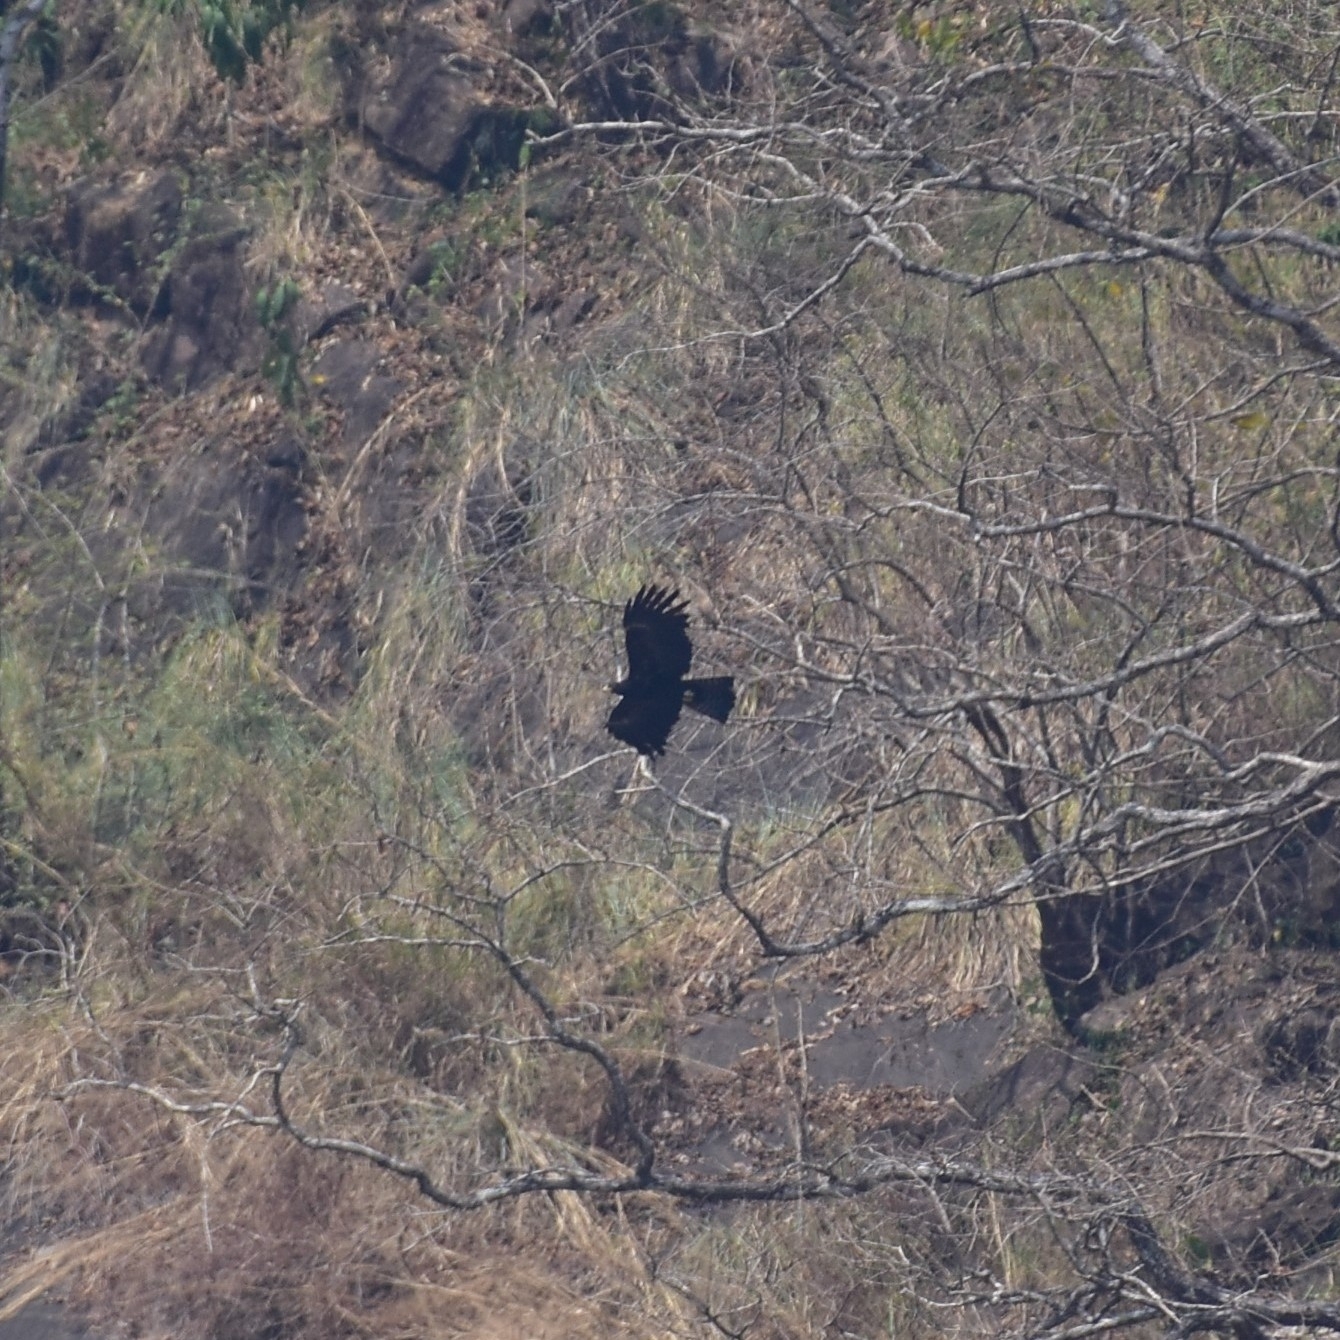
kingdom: Animalia
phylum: Chordata
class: Aves
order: Accipitriformes
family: Accipitridae
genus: Ictinaetus
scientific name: Ictinaetus malayensis
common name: Black eagle
